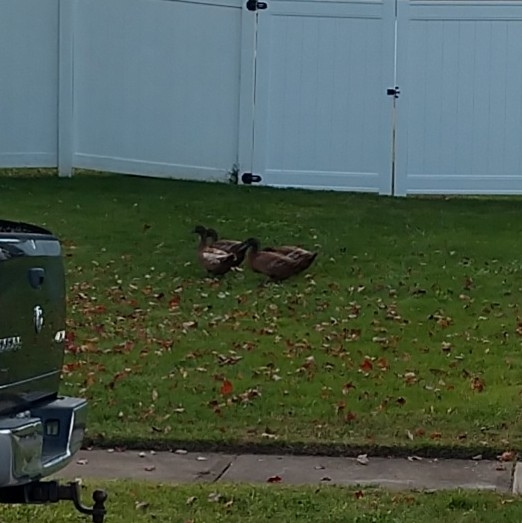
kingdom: Animalia
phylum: Chordata
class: Aves
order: Anseriformes
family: Anatidae
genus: Anas
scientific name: Anas platyrhynchos
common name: Mallard
